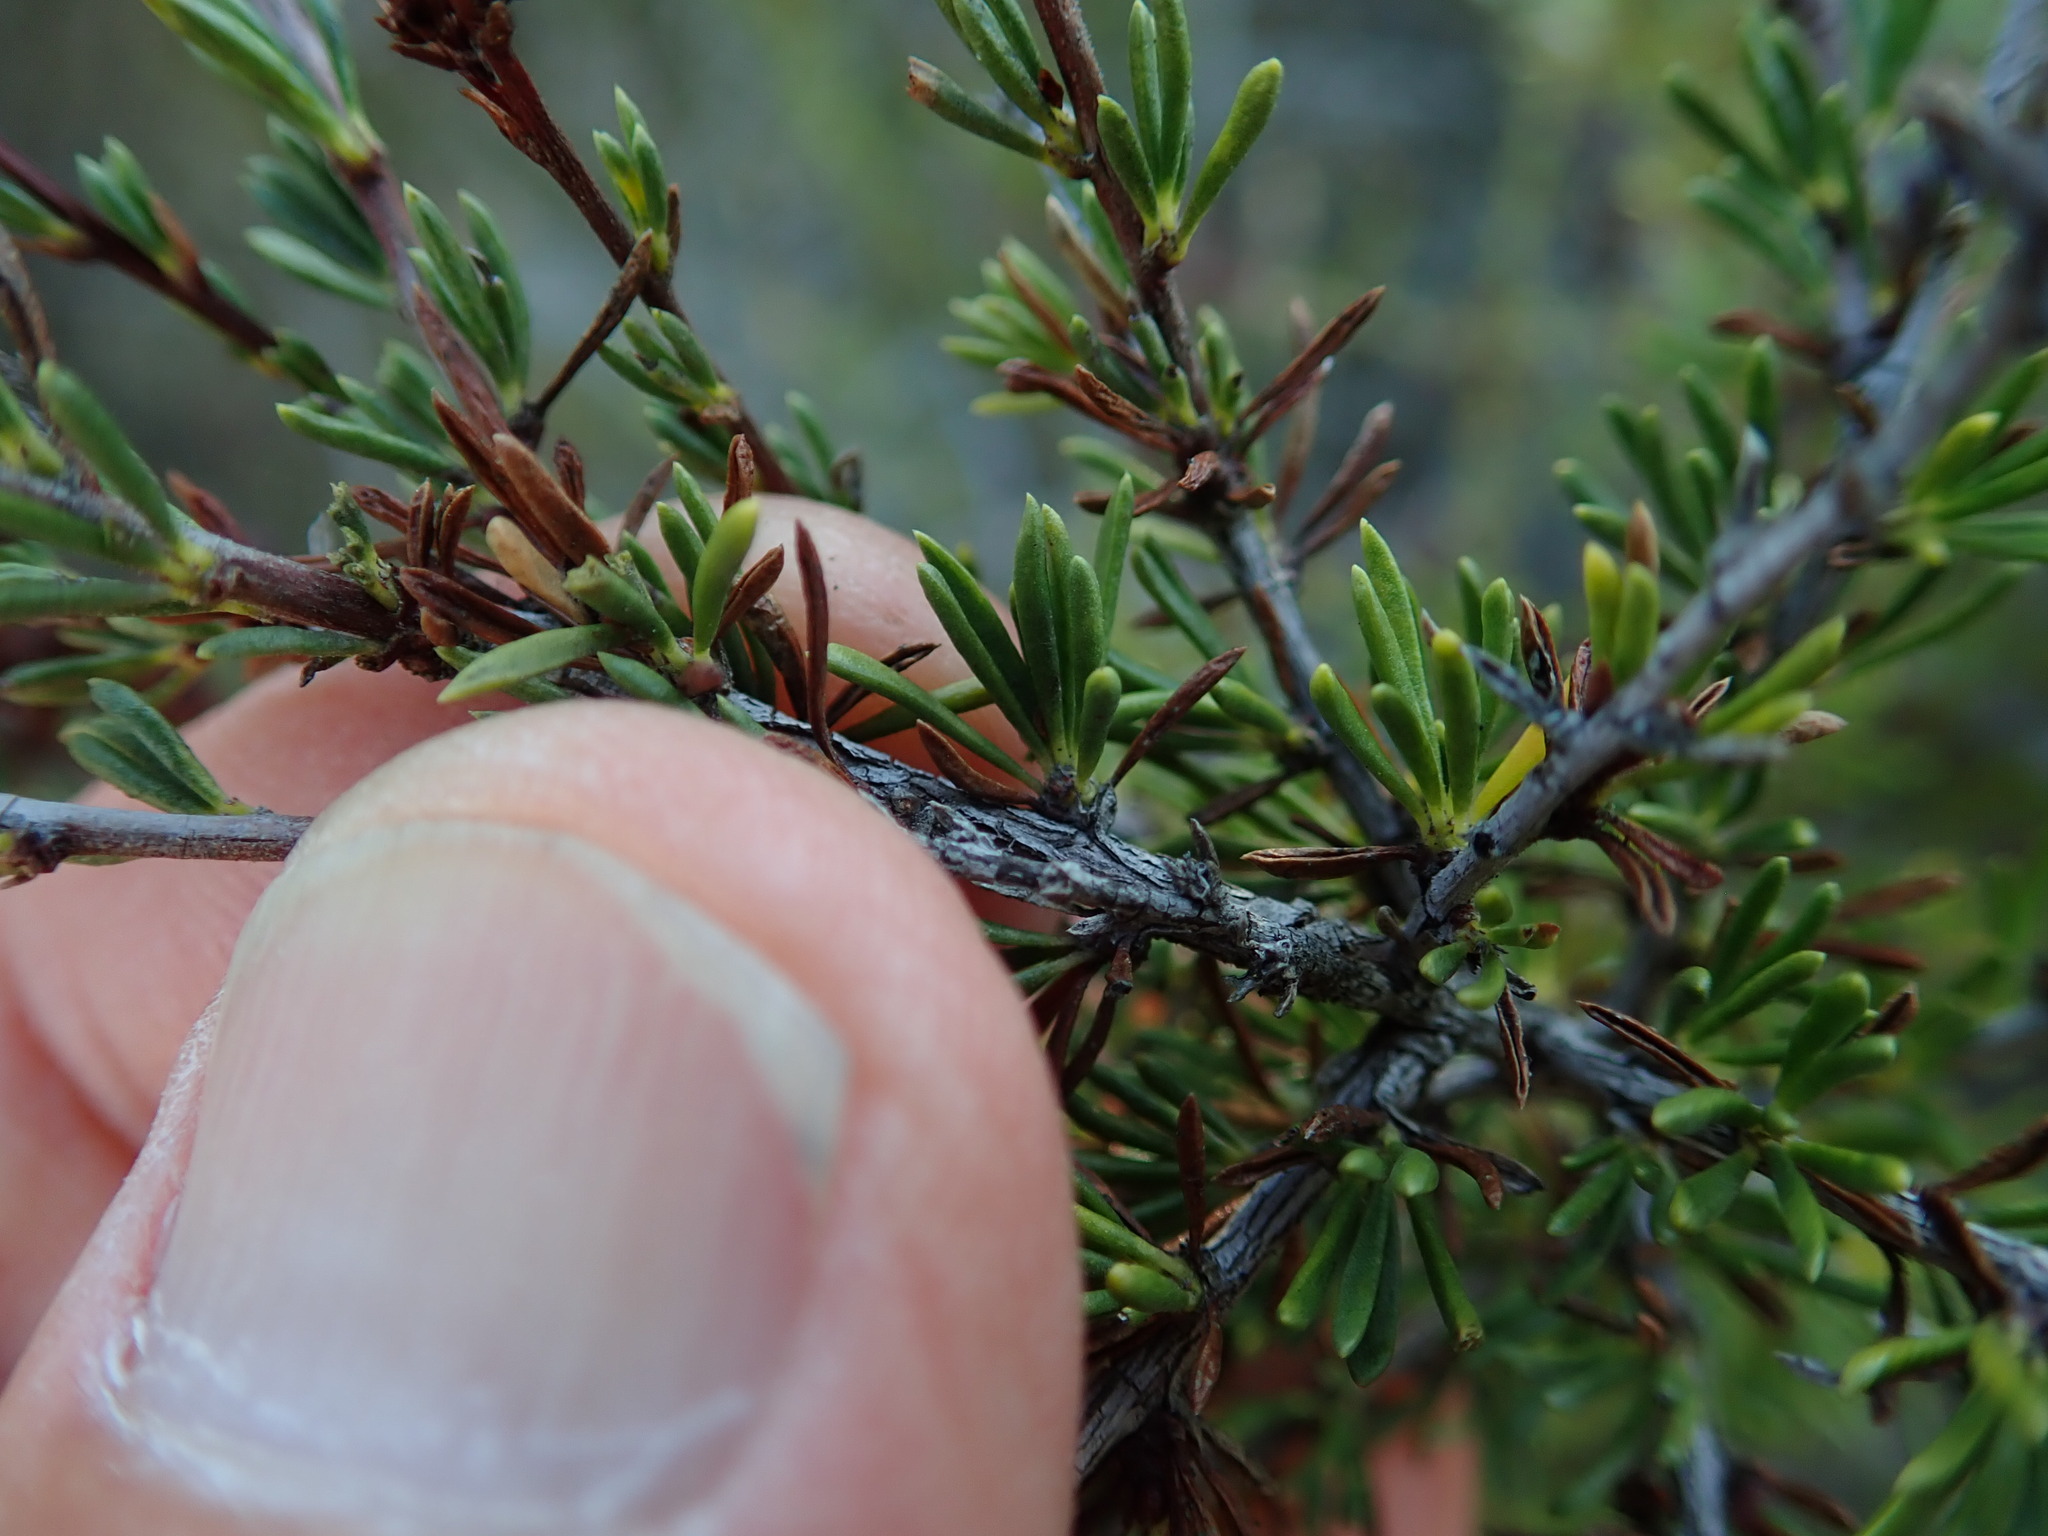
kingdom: Plantae
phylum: Tracheophyta
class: Magnoliopsida
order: Rosales
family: Rosaceae
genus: Adenostoma
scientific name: Adenostoma fasciculatum
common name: Chamise
